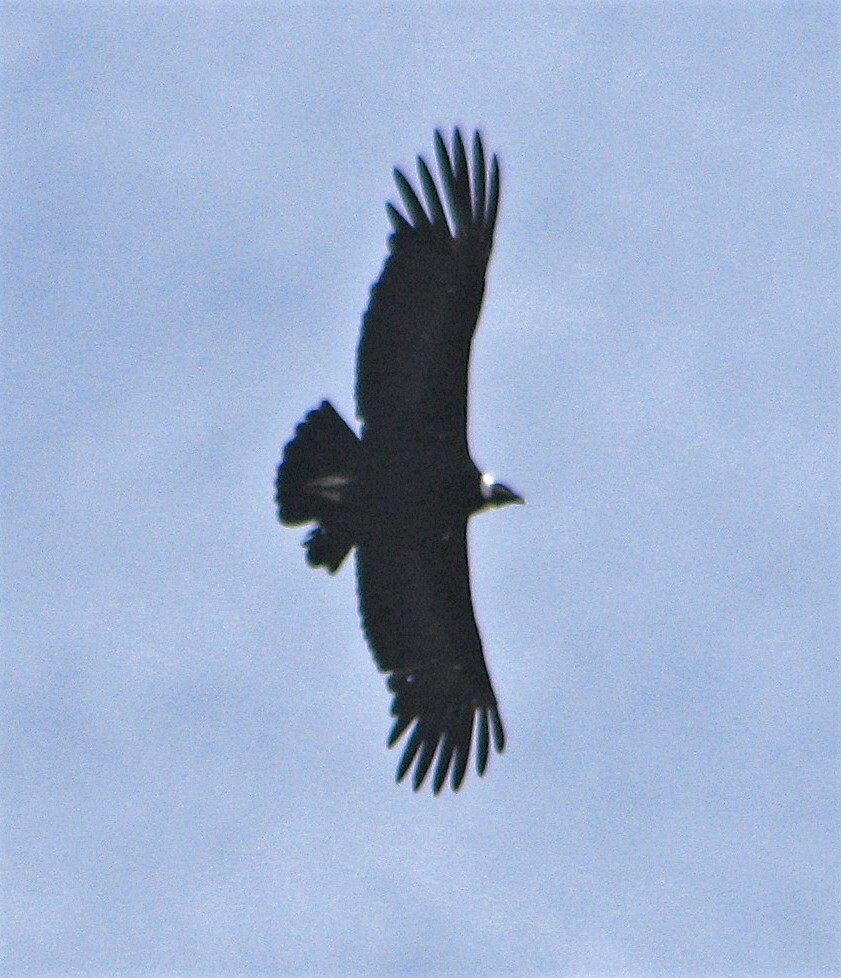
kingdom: Animalia
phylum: Chordata
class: Aves
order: Accipitriformes
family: Cathartidae
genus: Vultur
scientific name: Vultur gryphus
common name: Andean condor
